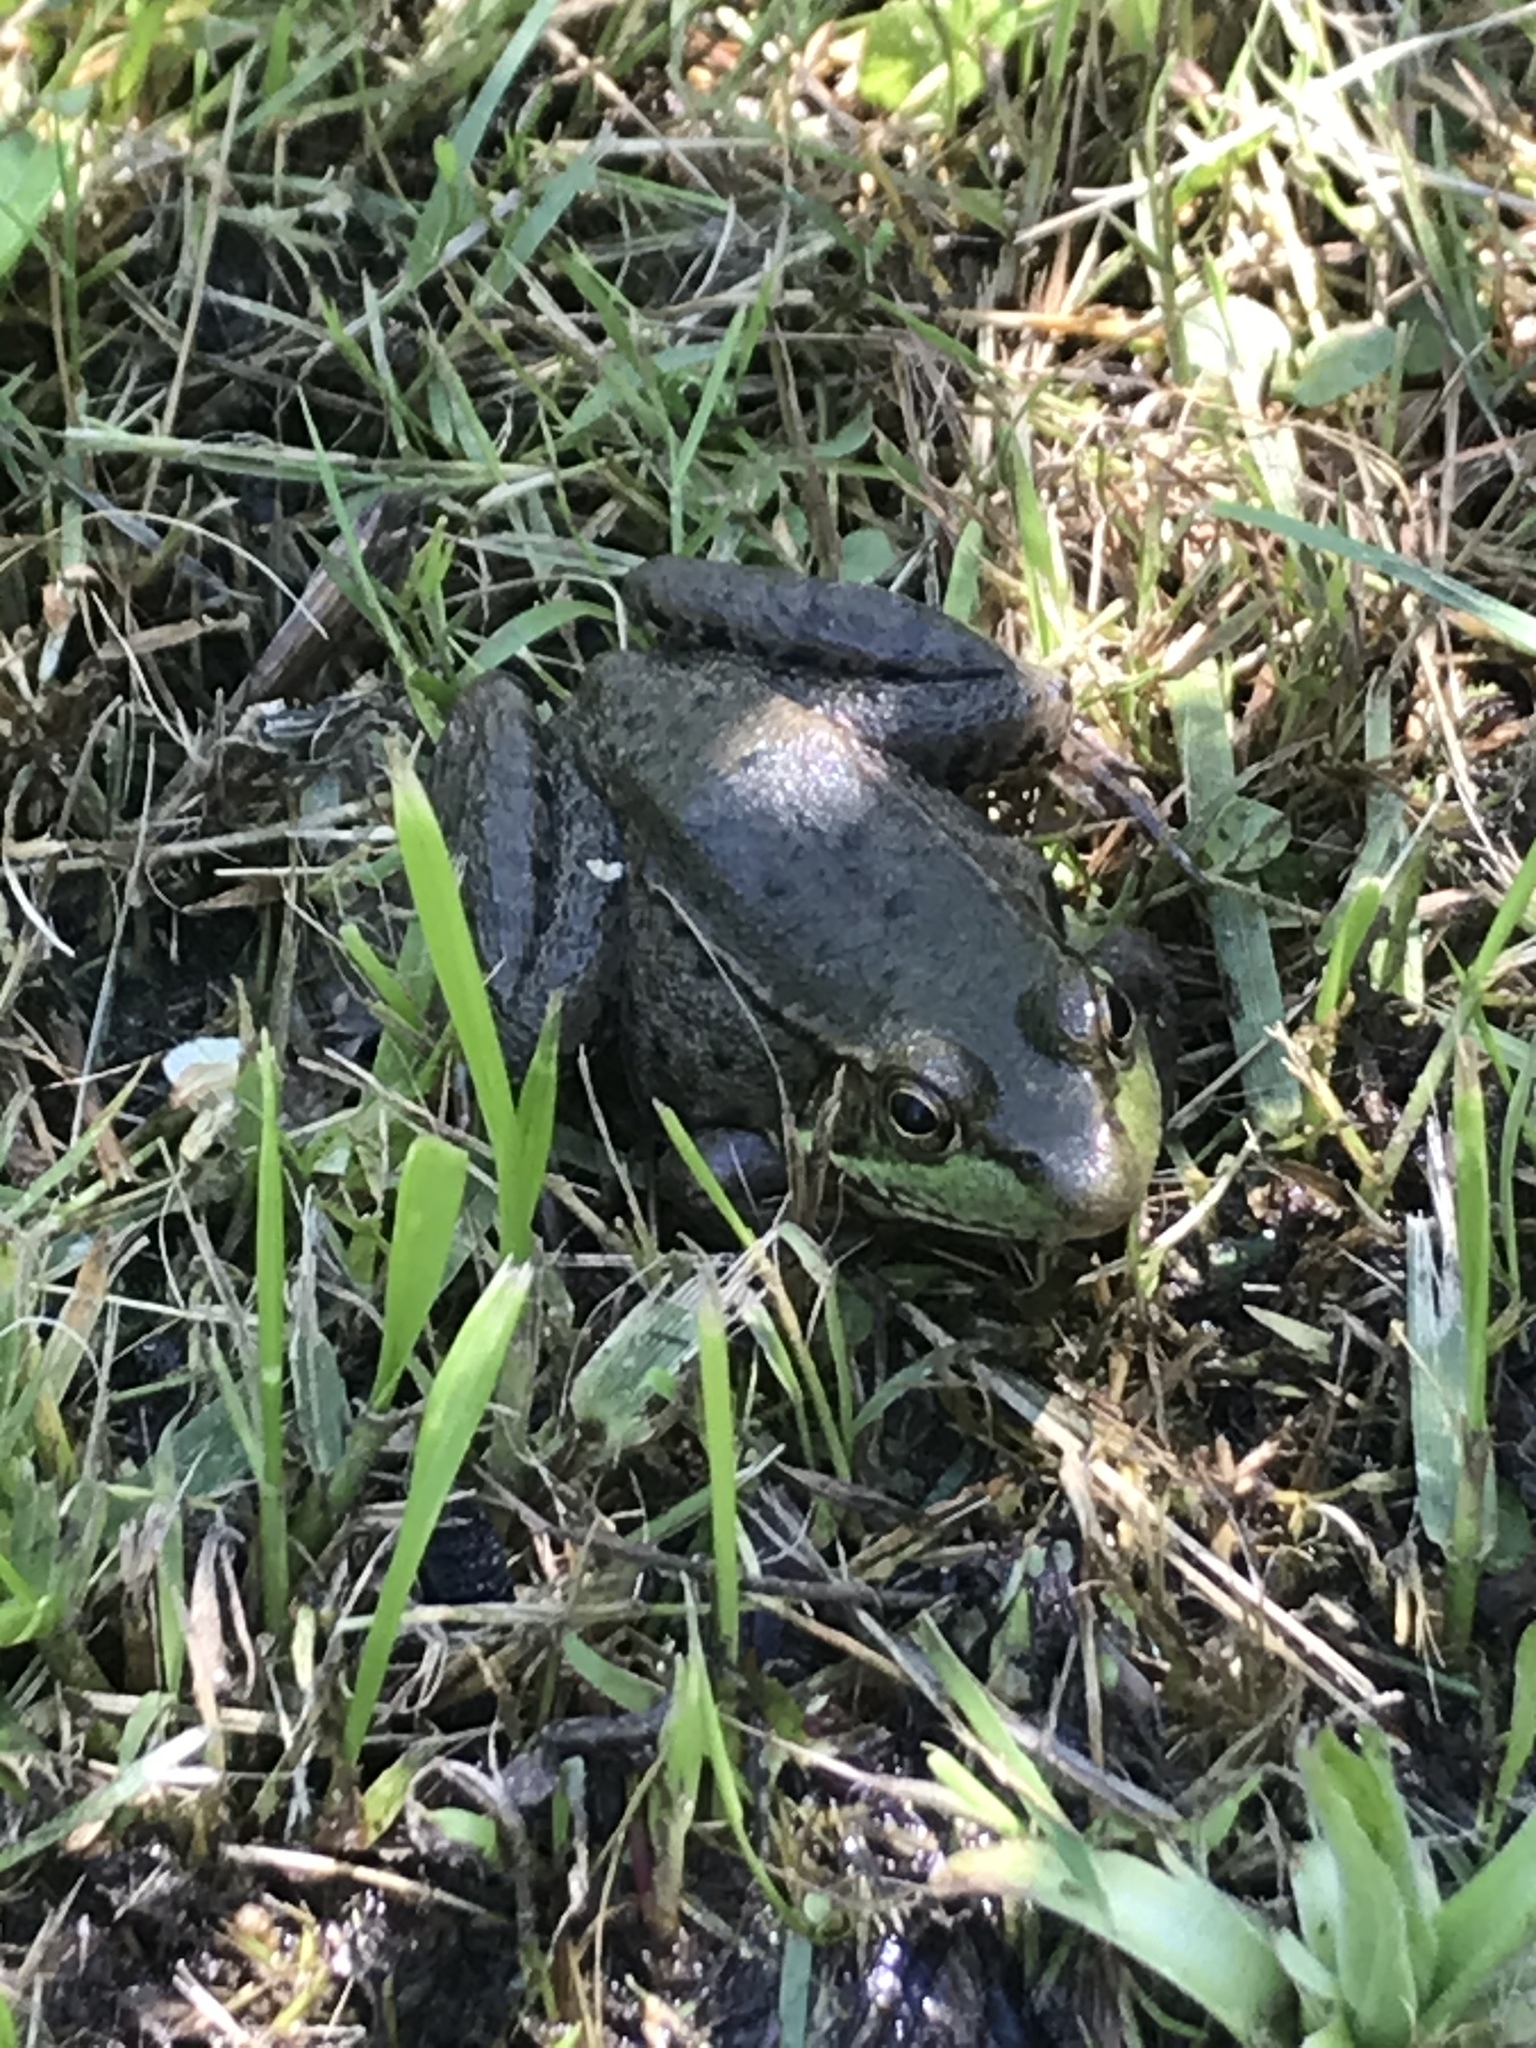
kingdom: Animalia
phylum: Chordata
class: Amphibia
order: Anura
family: Ranidae
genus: Lithobates
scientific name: Lithobates clamitans
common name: Green frog
